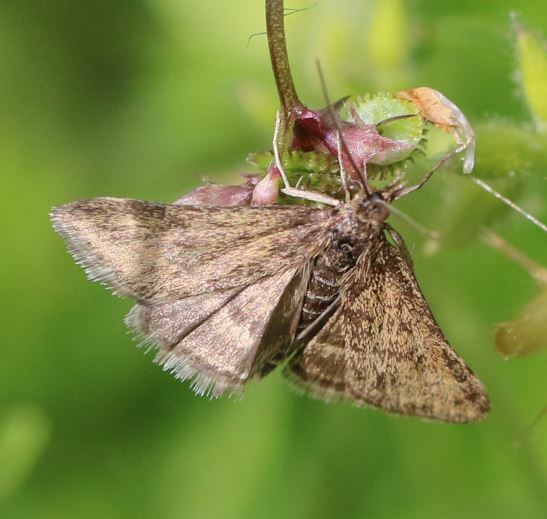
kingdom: Animalia
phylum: Arthropoda
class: Insecta
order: Lepidoptera
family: Crambidae
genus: Pyrausta
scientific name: Pyrausta despicata
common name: Straw-barred pearl
